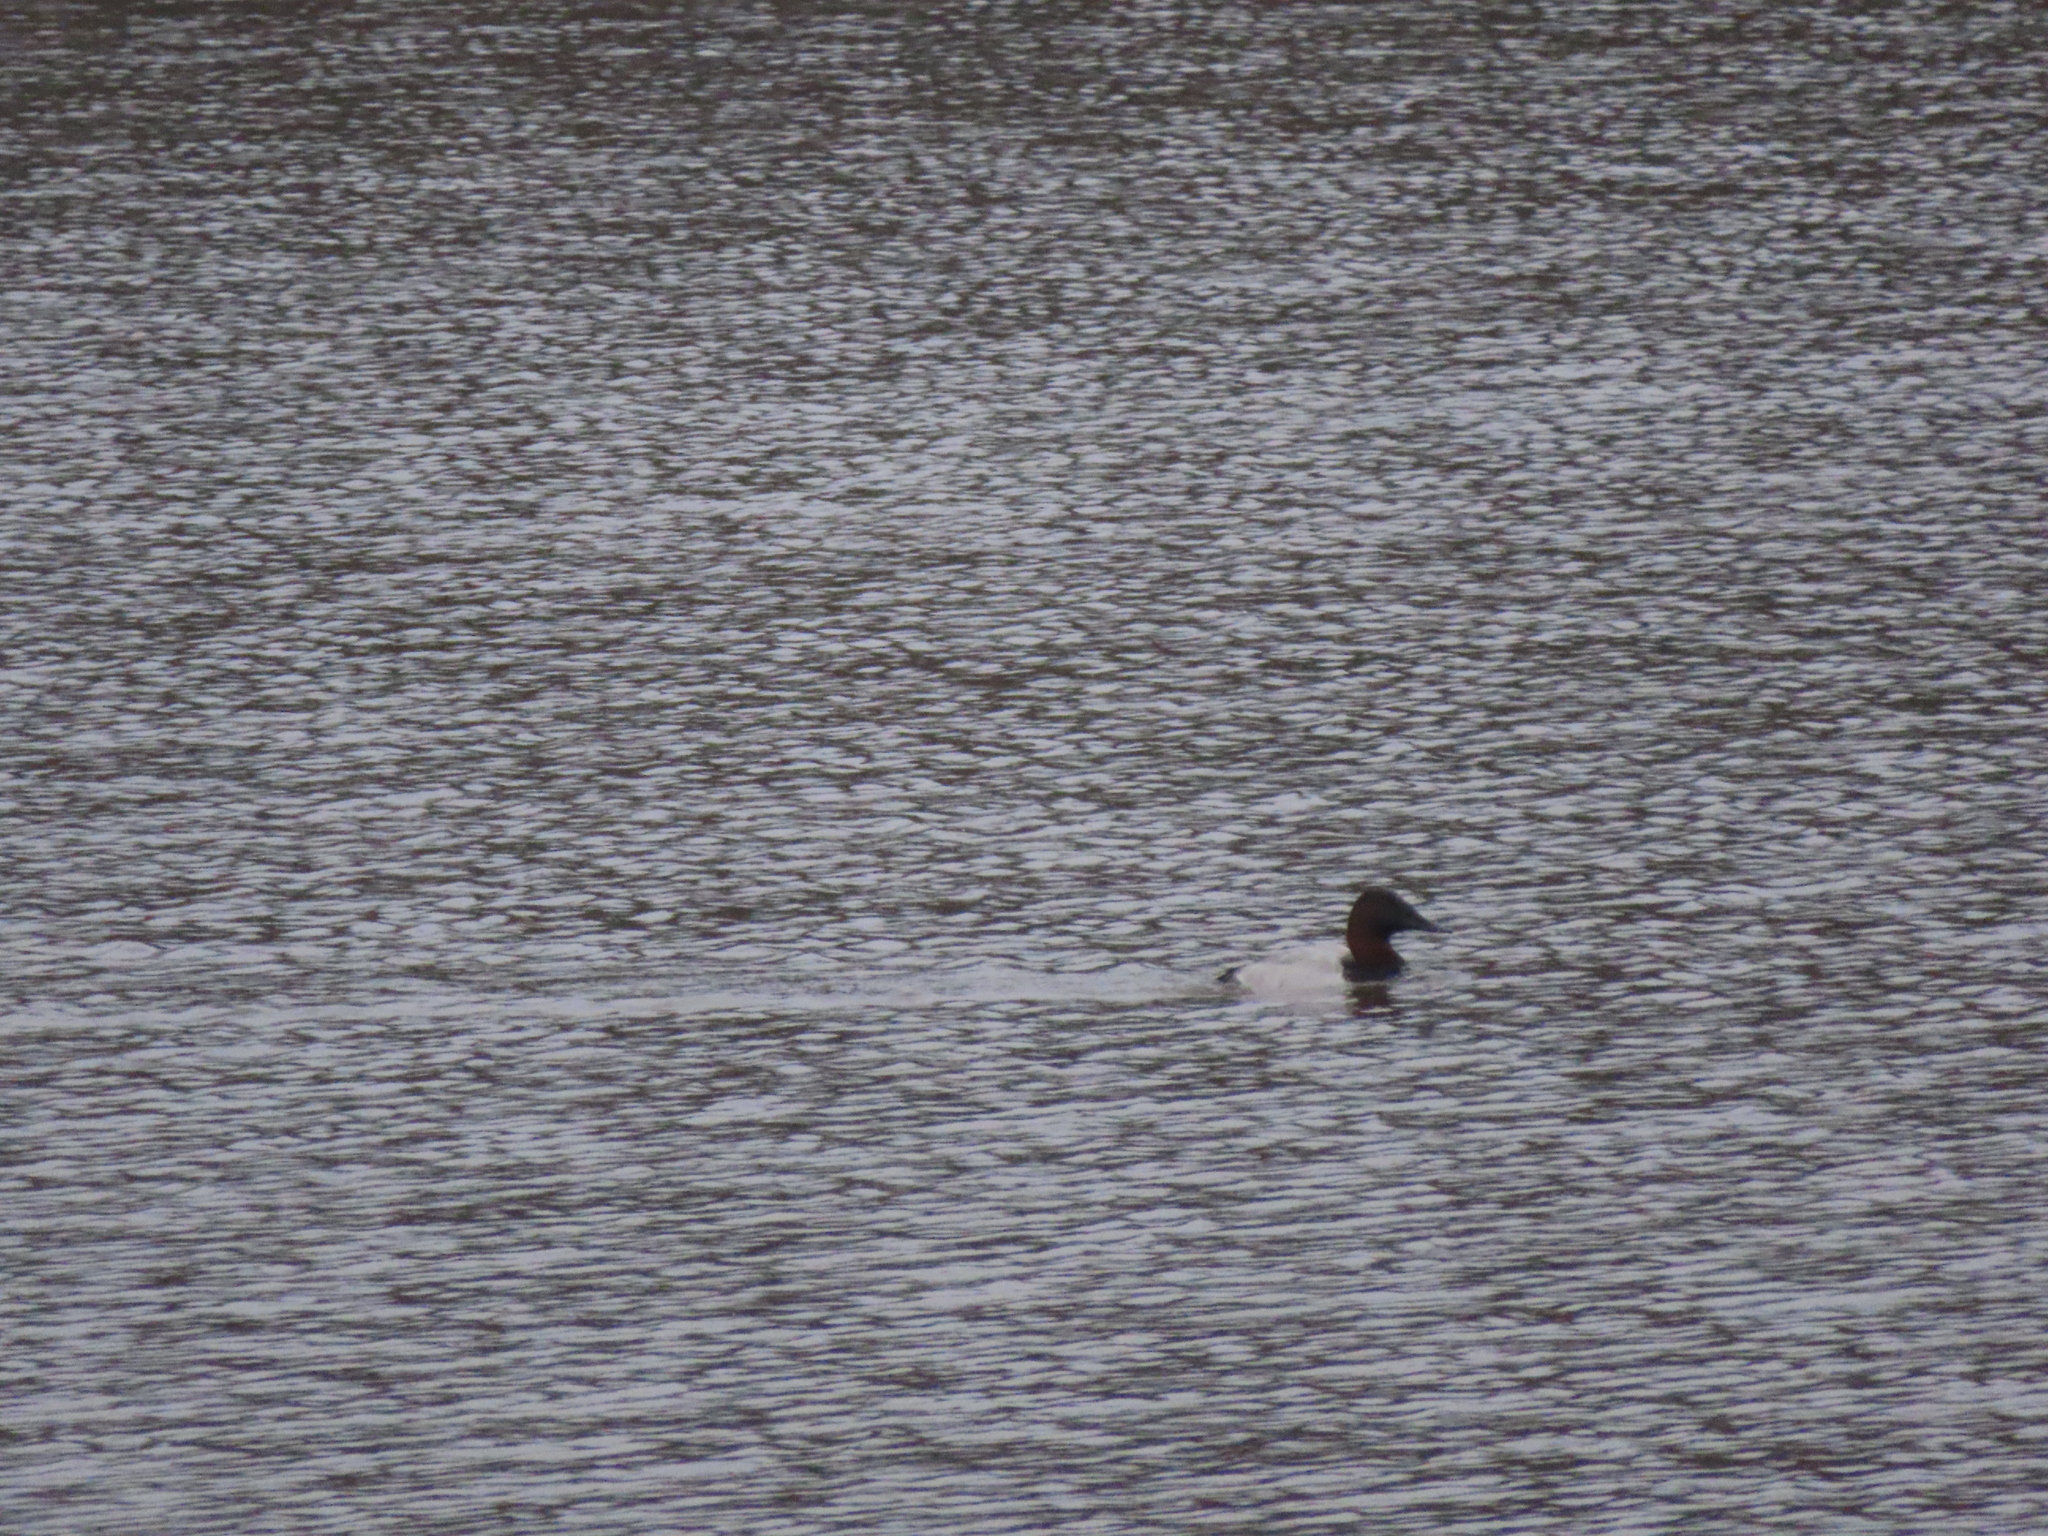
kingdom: Animalia
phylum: Chordata
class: Aves
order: Anseriformes
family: Anatidae
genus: Aythya
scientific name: Aythya valisineria
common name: Canvasback
